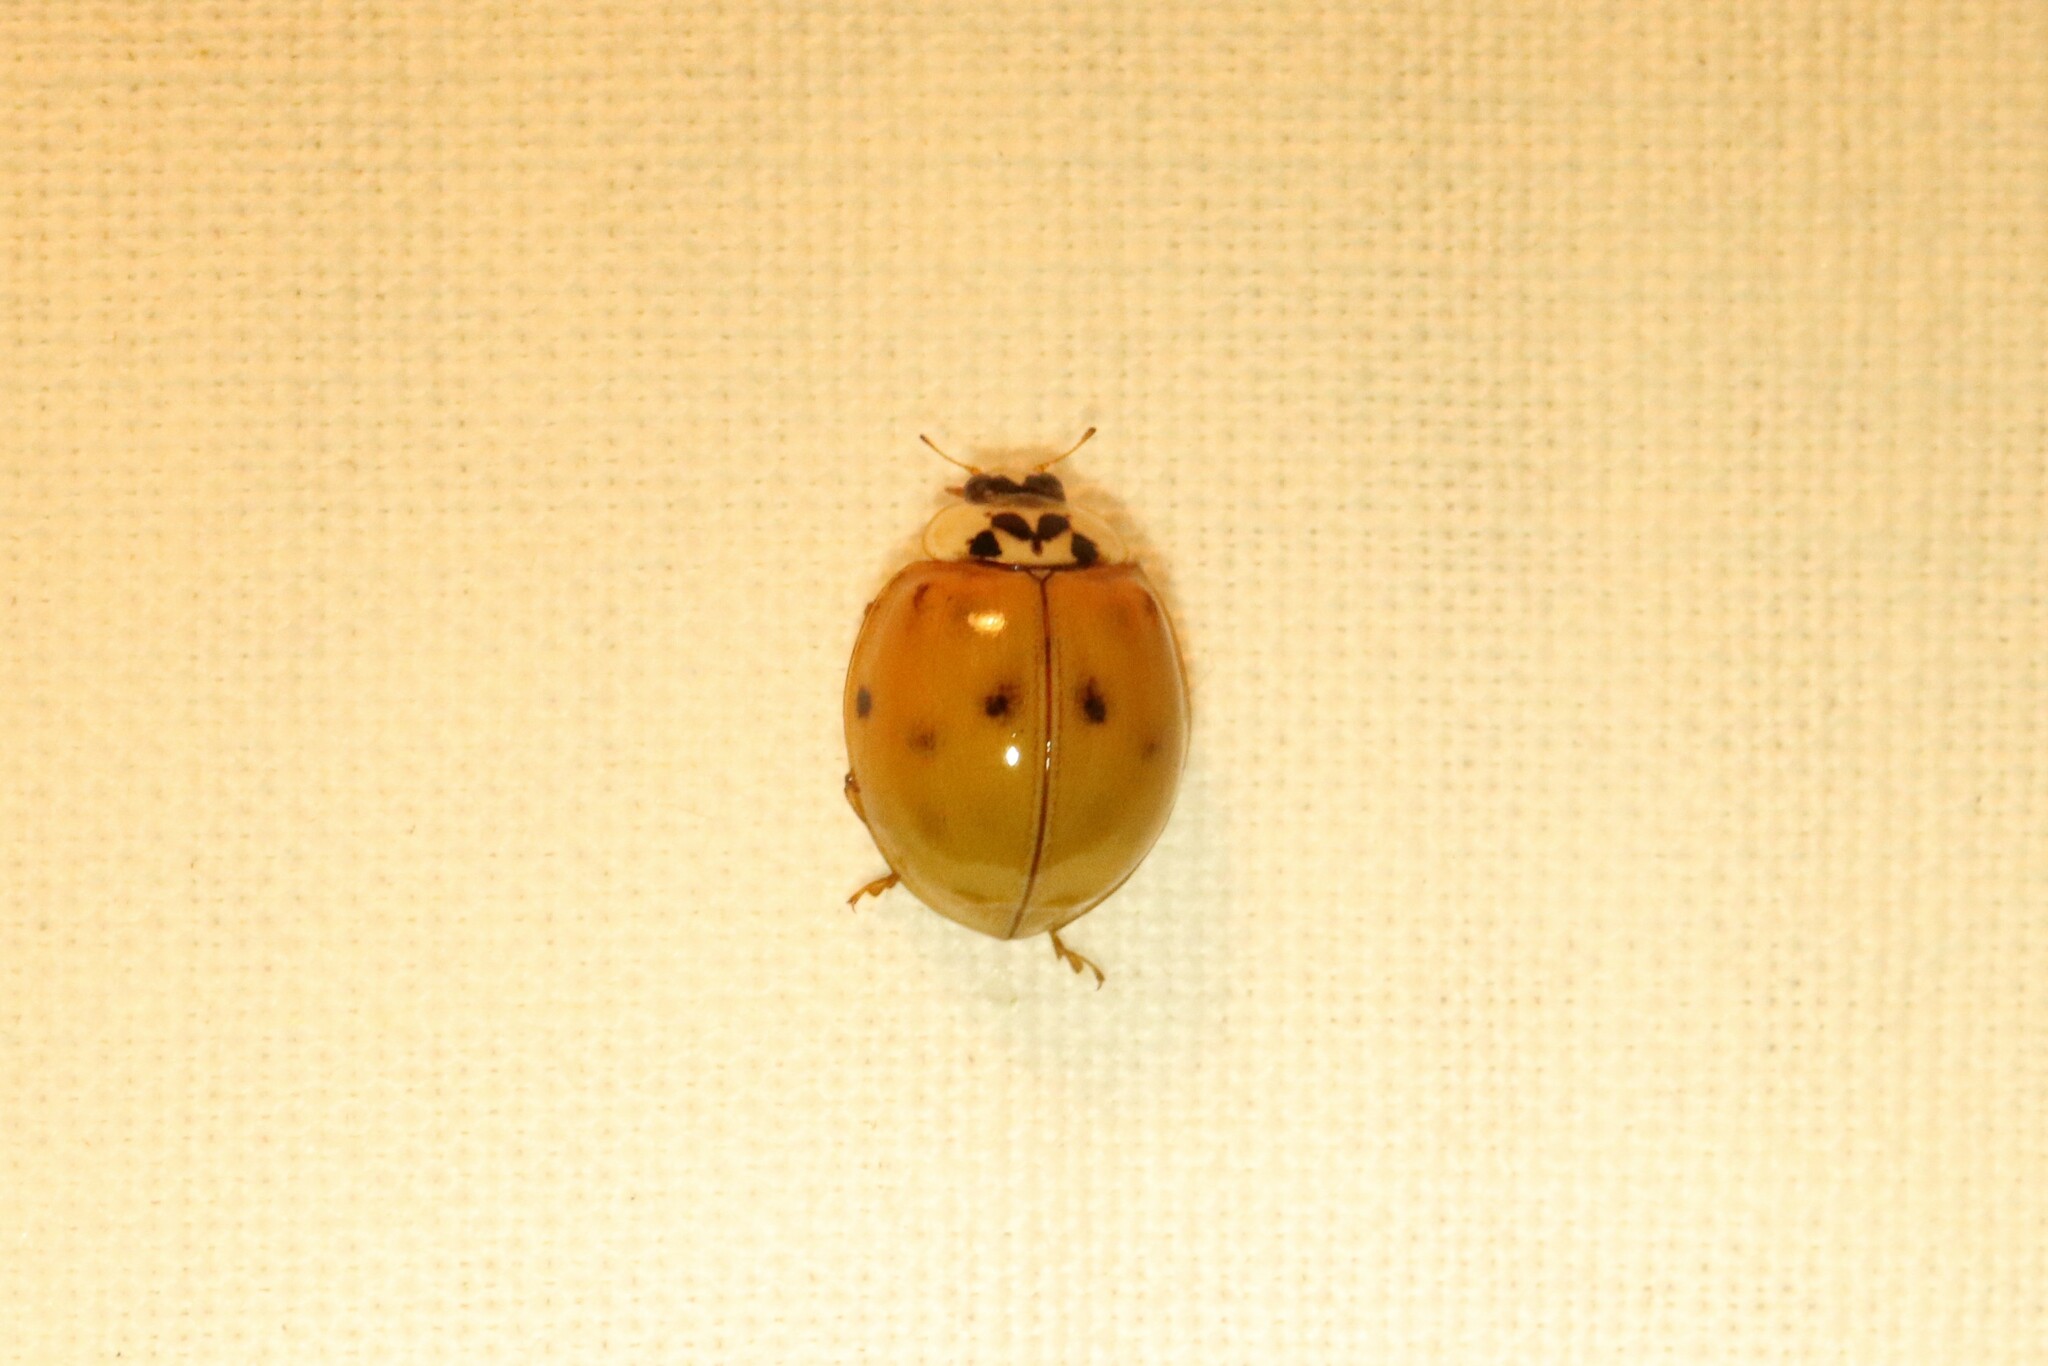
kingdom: Animalia
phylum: Arthropoda
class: Insecta
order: Coleoptera
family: Coccinellidae
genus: Harmonia
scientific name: Harmonia axyridis
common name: Harlequin ladybird
